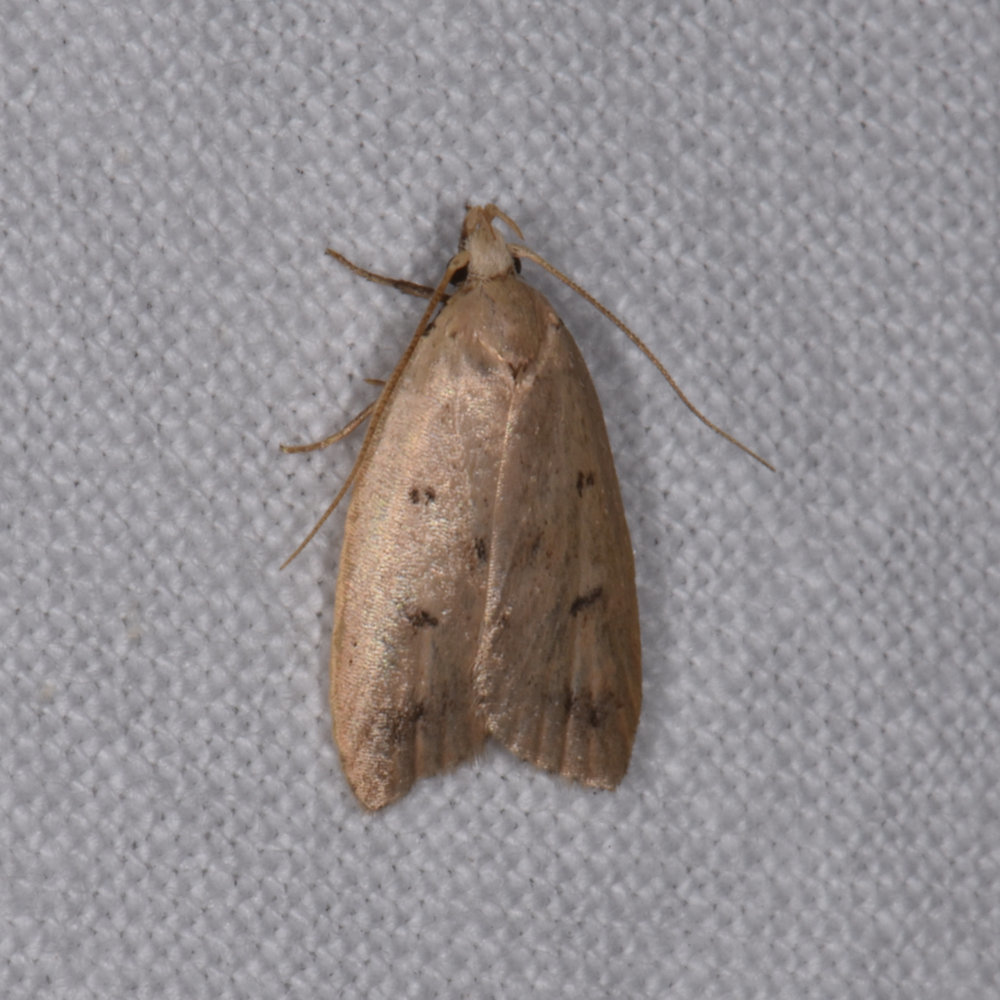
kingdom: Animalia
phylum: Arthropoda
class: Insecta
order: Lepidoptera
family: Peleopodidae
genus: Machimia
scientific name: Machimia tentoriferella
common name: Gold-striped leaftier moth
